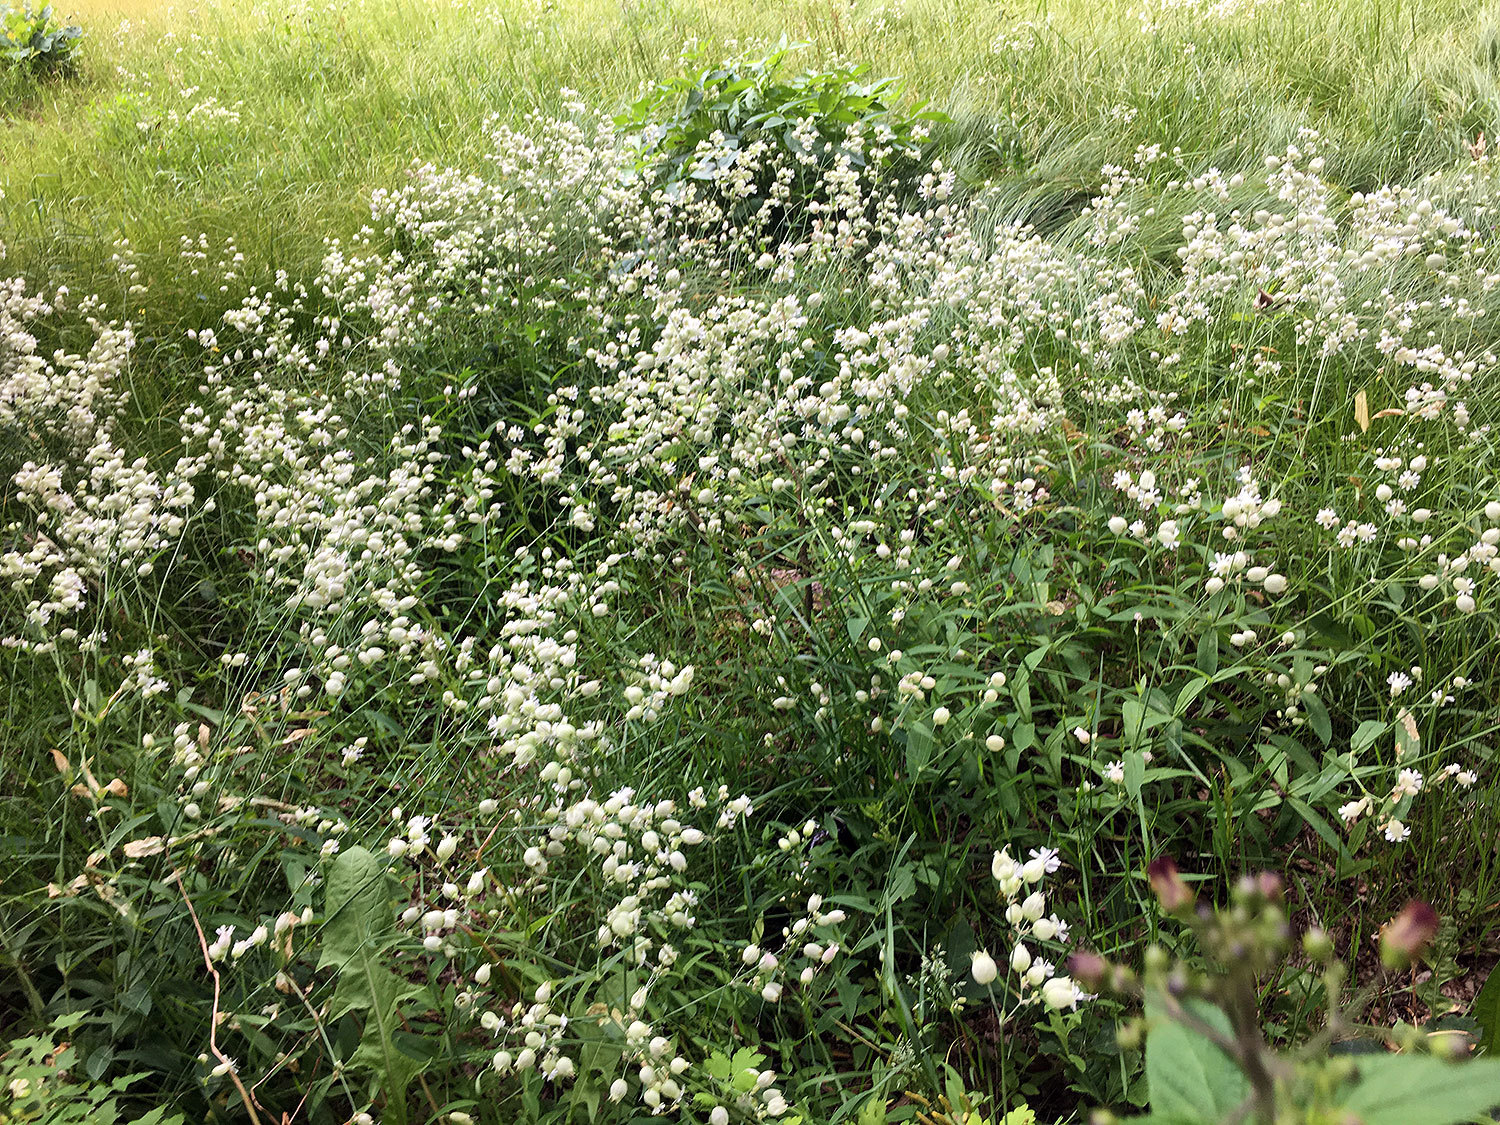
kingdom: Plantae
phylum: Tracheophyta
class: Magnoliopsida
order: Caryophyllales
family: Caryophyllaceae
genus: Silene
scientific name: Silene vulgaris
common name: Bladder campion
